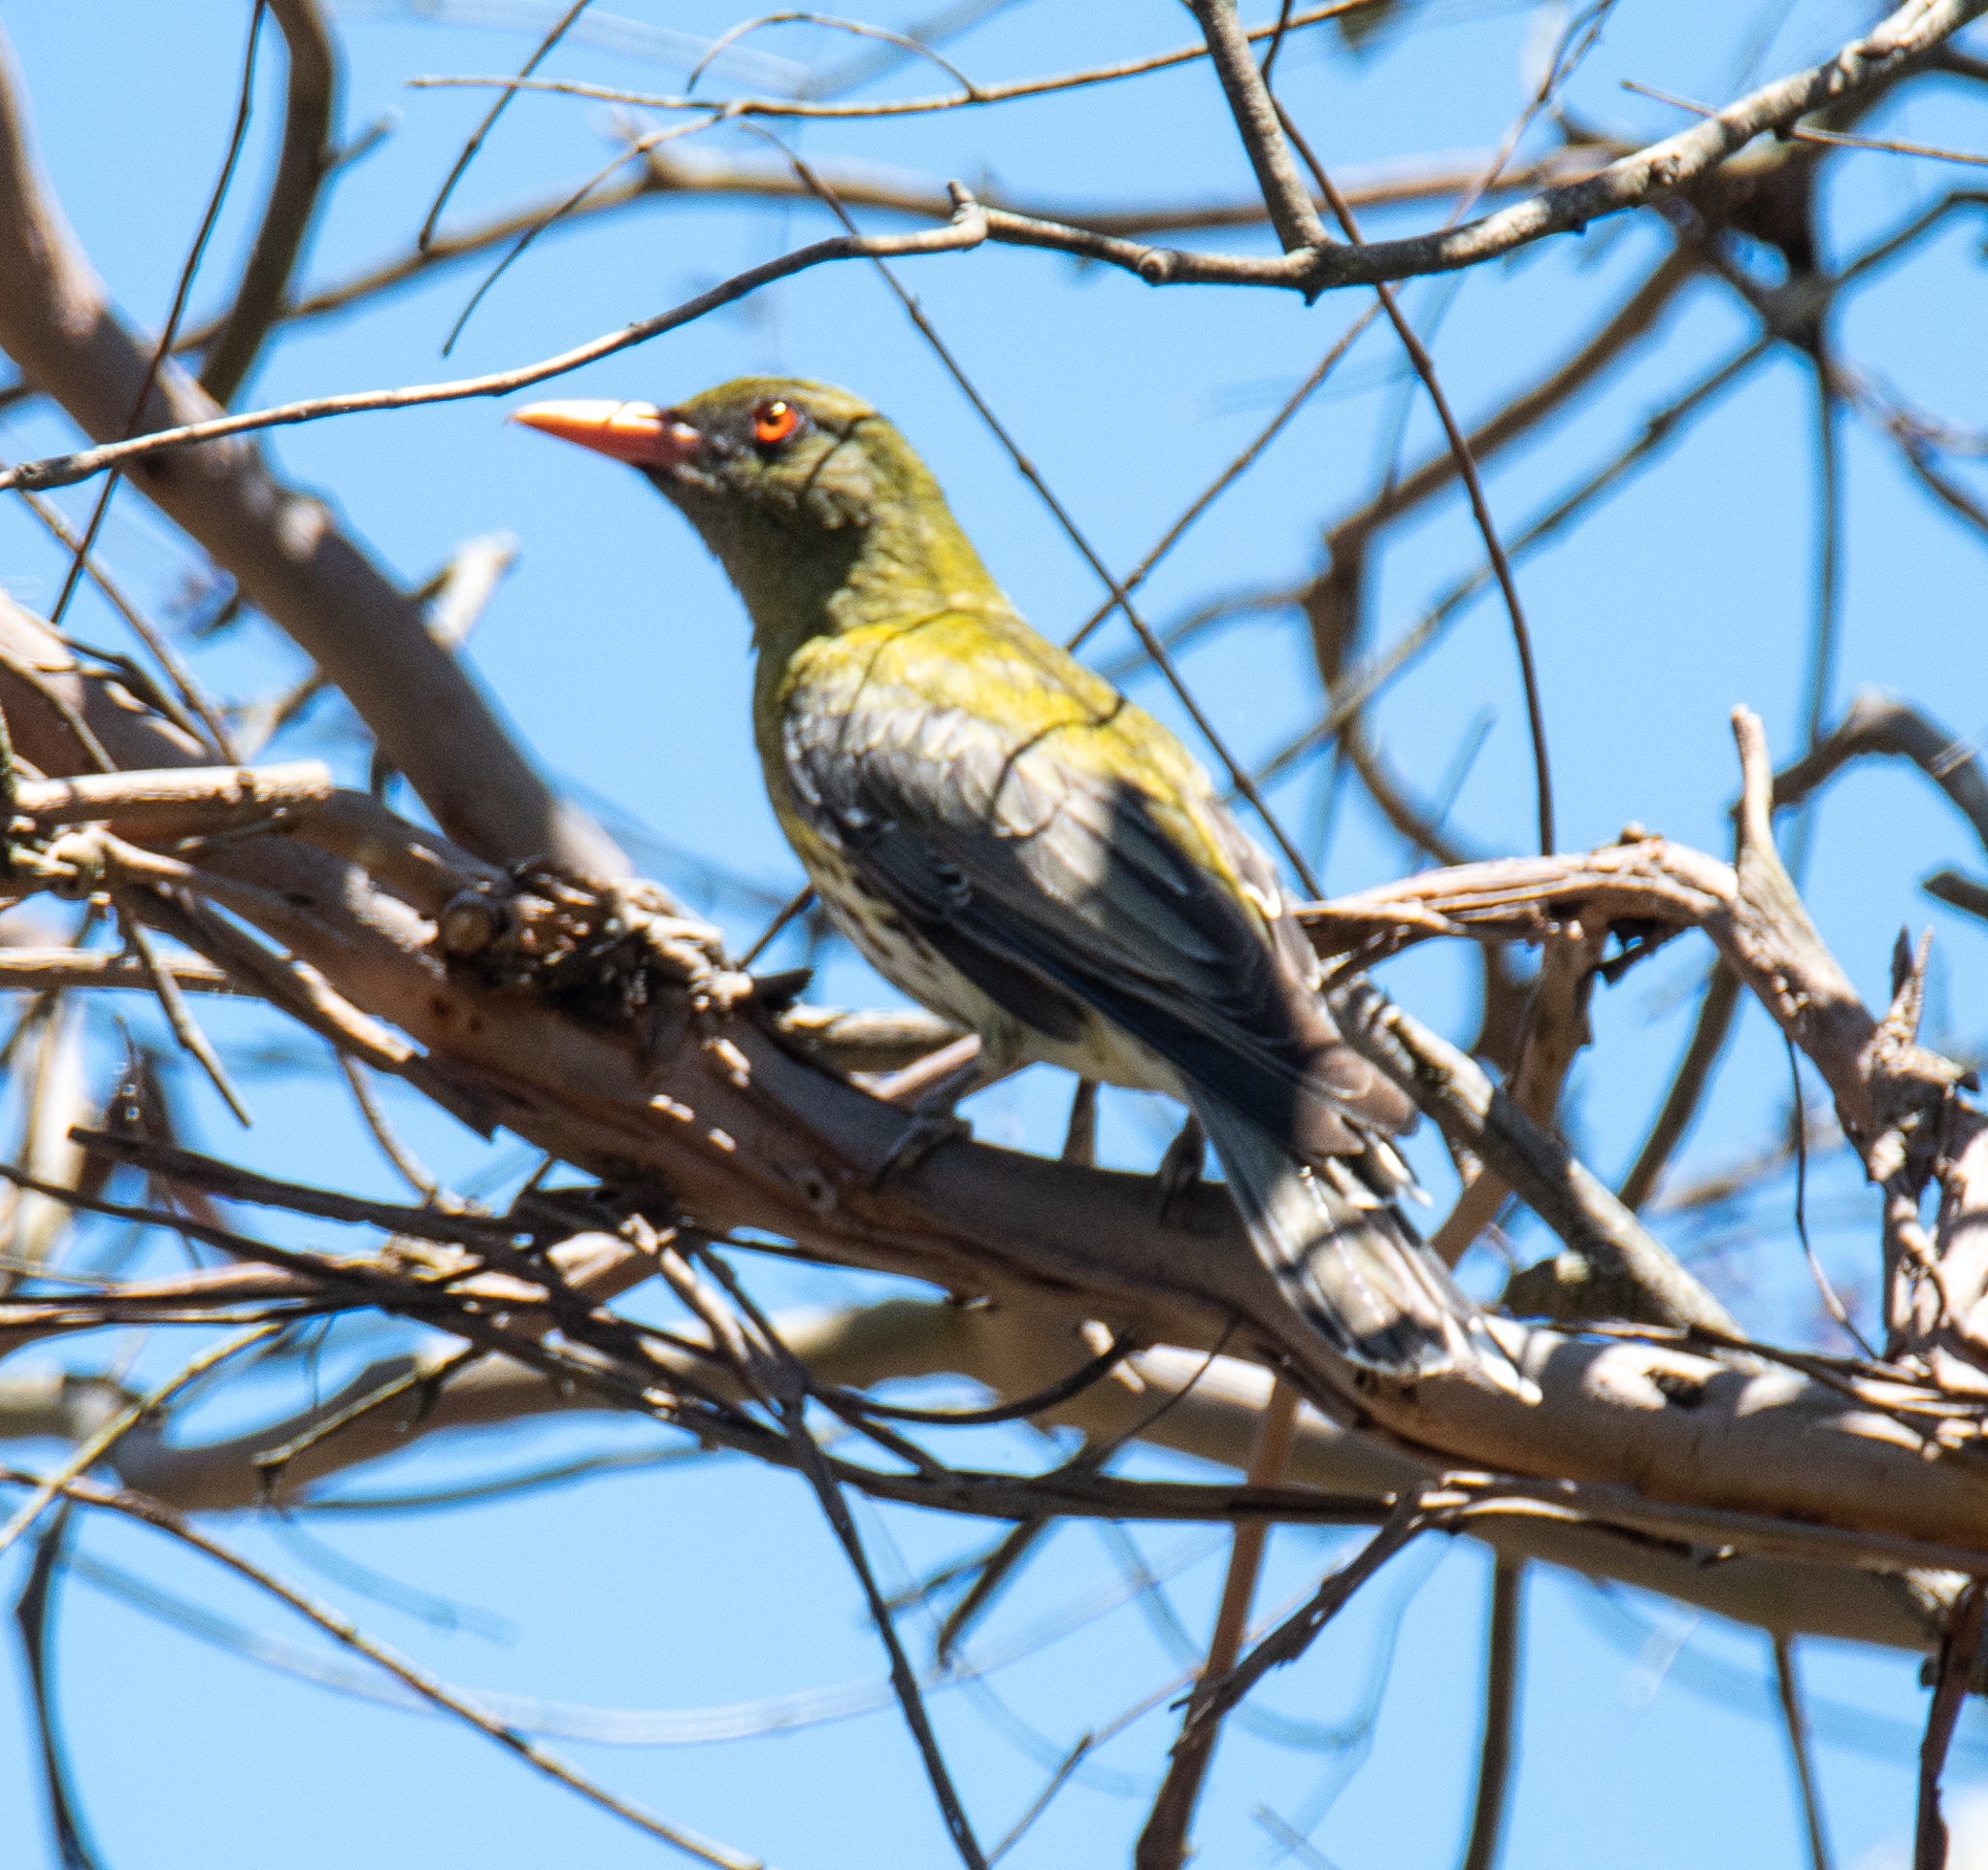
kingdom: Animalia
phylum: Chordata
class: Aves
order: Passeriformes
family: Oriolidae
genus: Oriolus
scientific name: Oriolus sagittatus
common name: Olive-backed oriole
